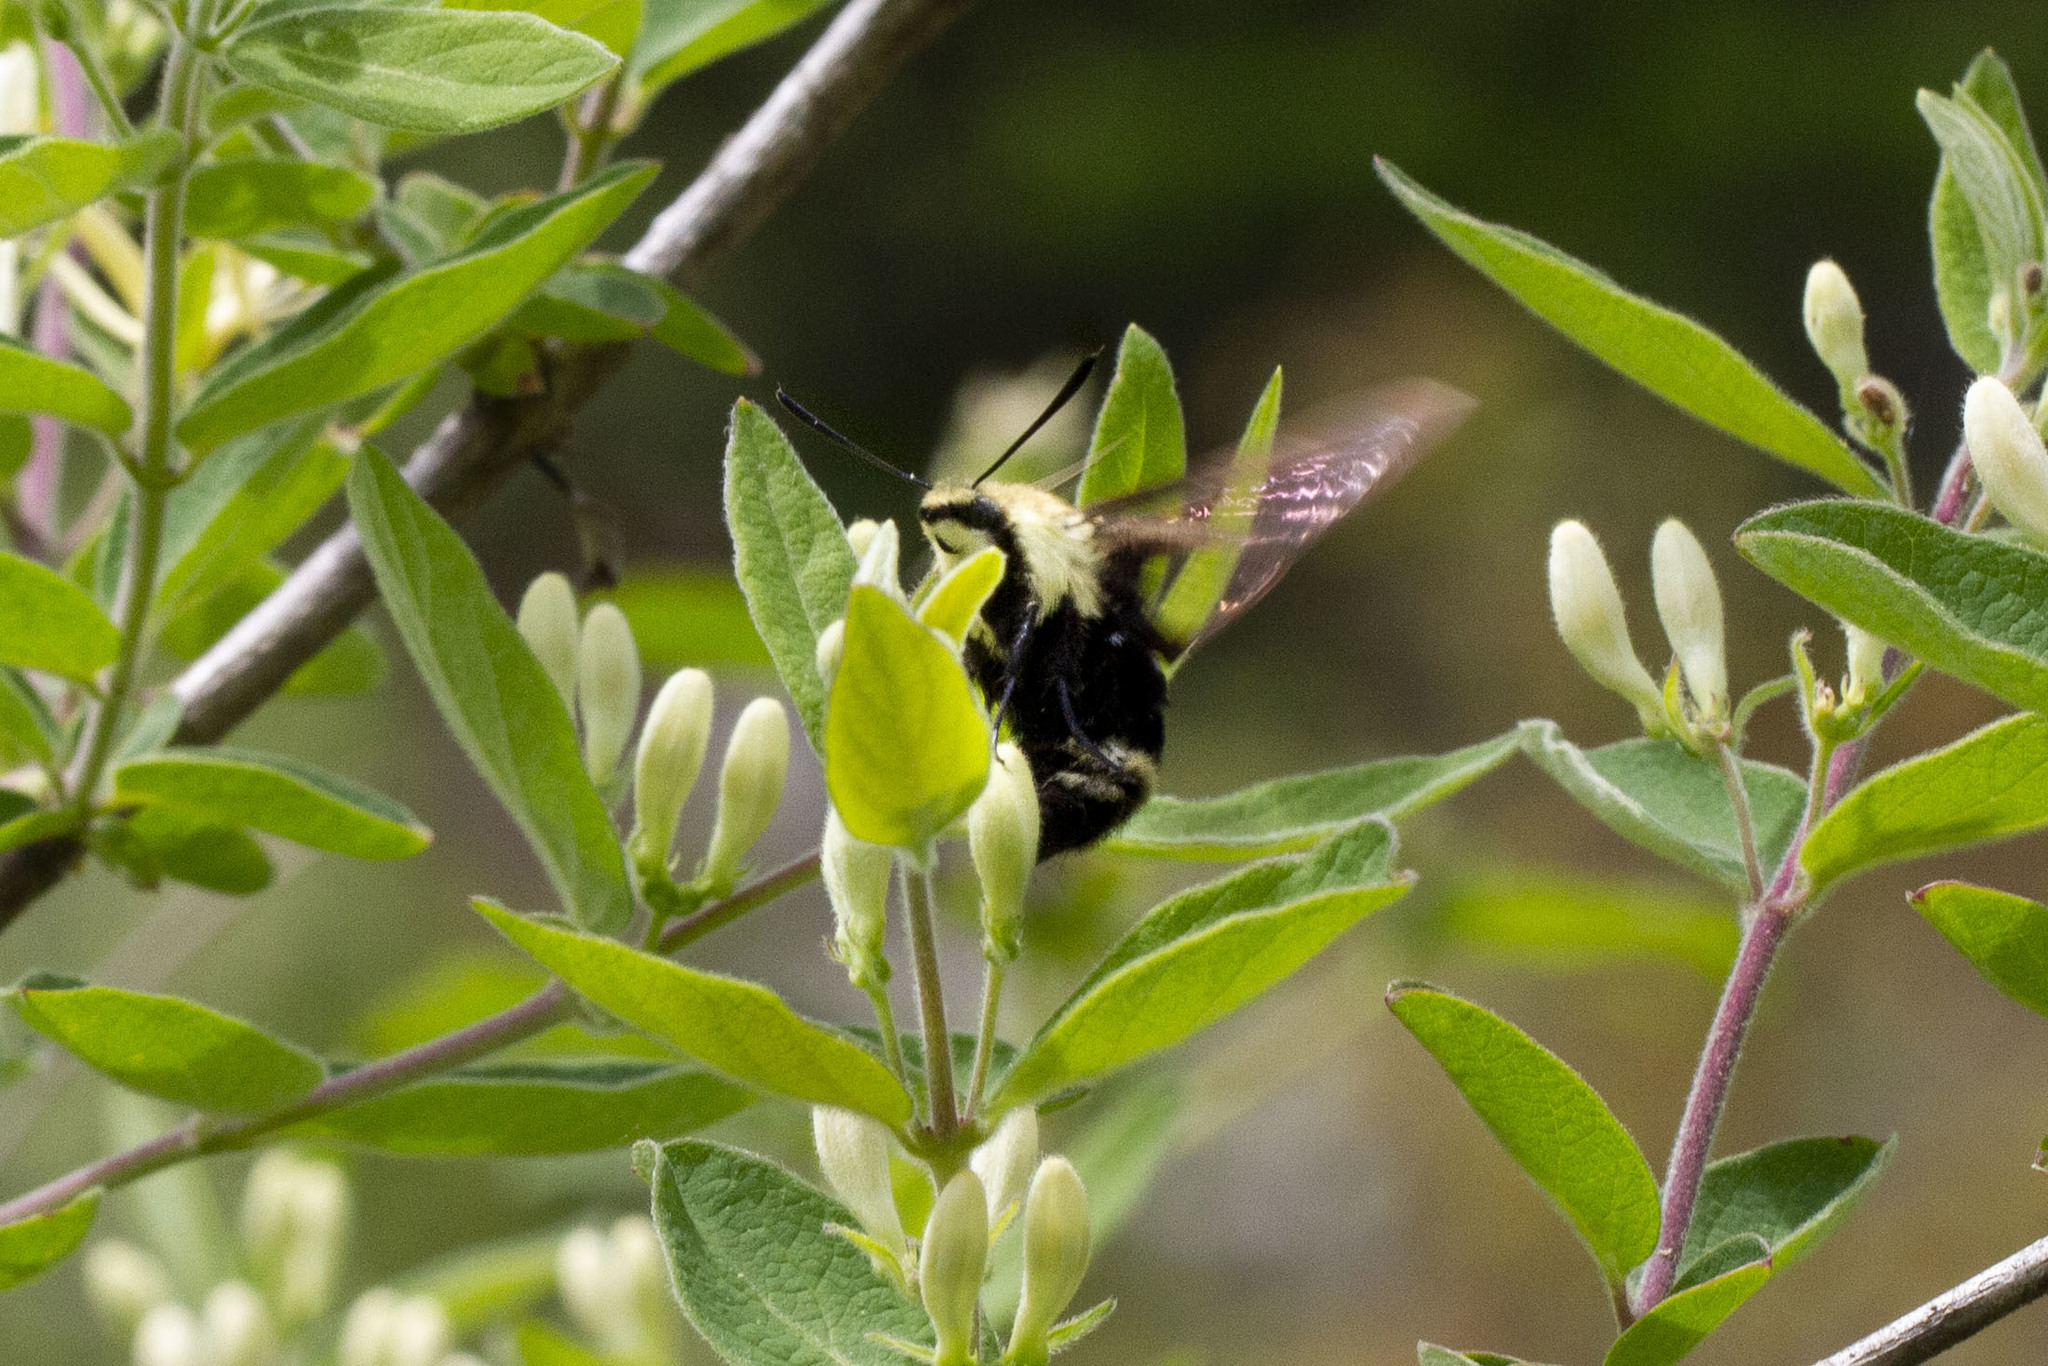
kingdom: Animalia
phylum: Arthropoda
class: Insecta
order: Lepidoptera
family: Sphingidae
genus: Hemaris
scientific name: Hemaris diffinis
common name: Bumblebee moth
